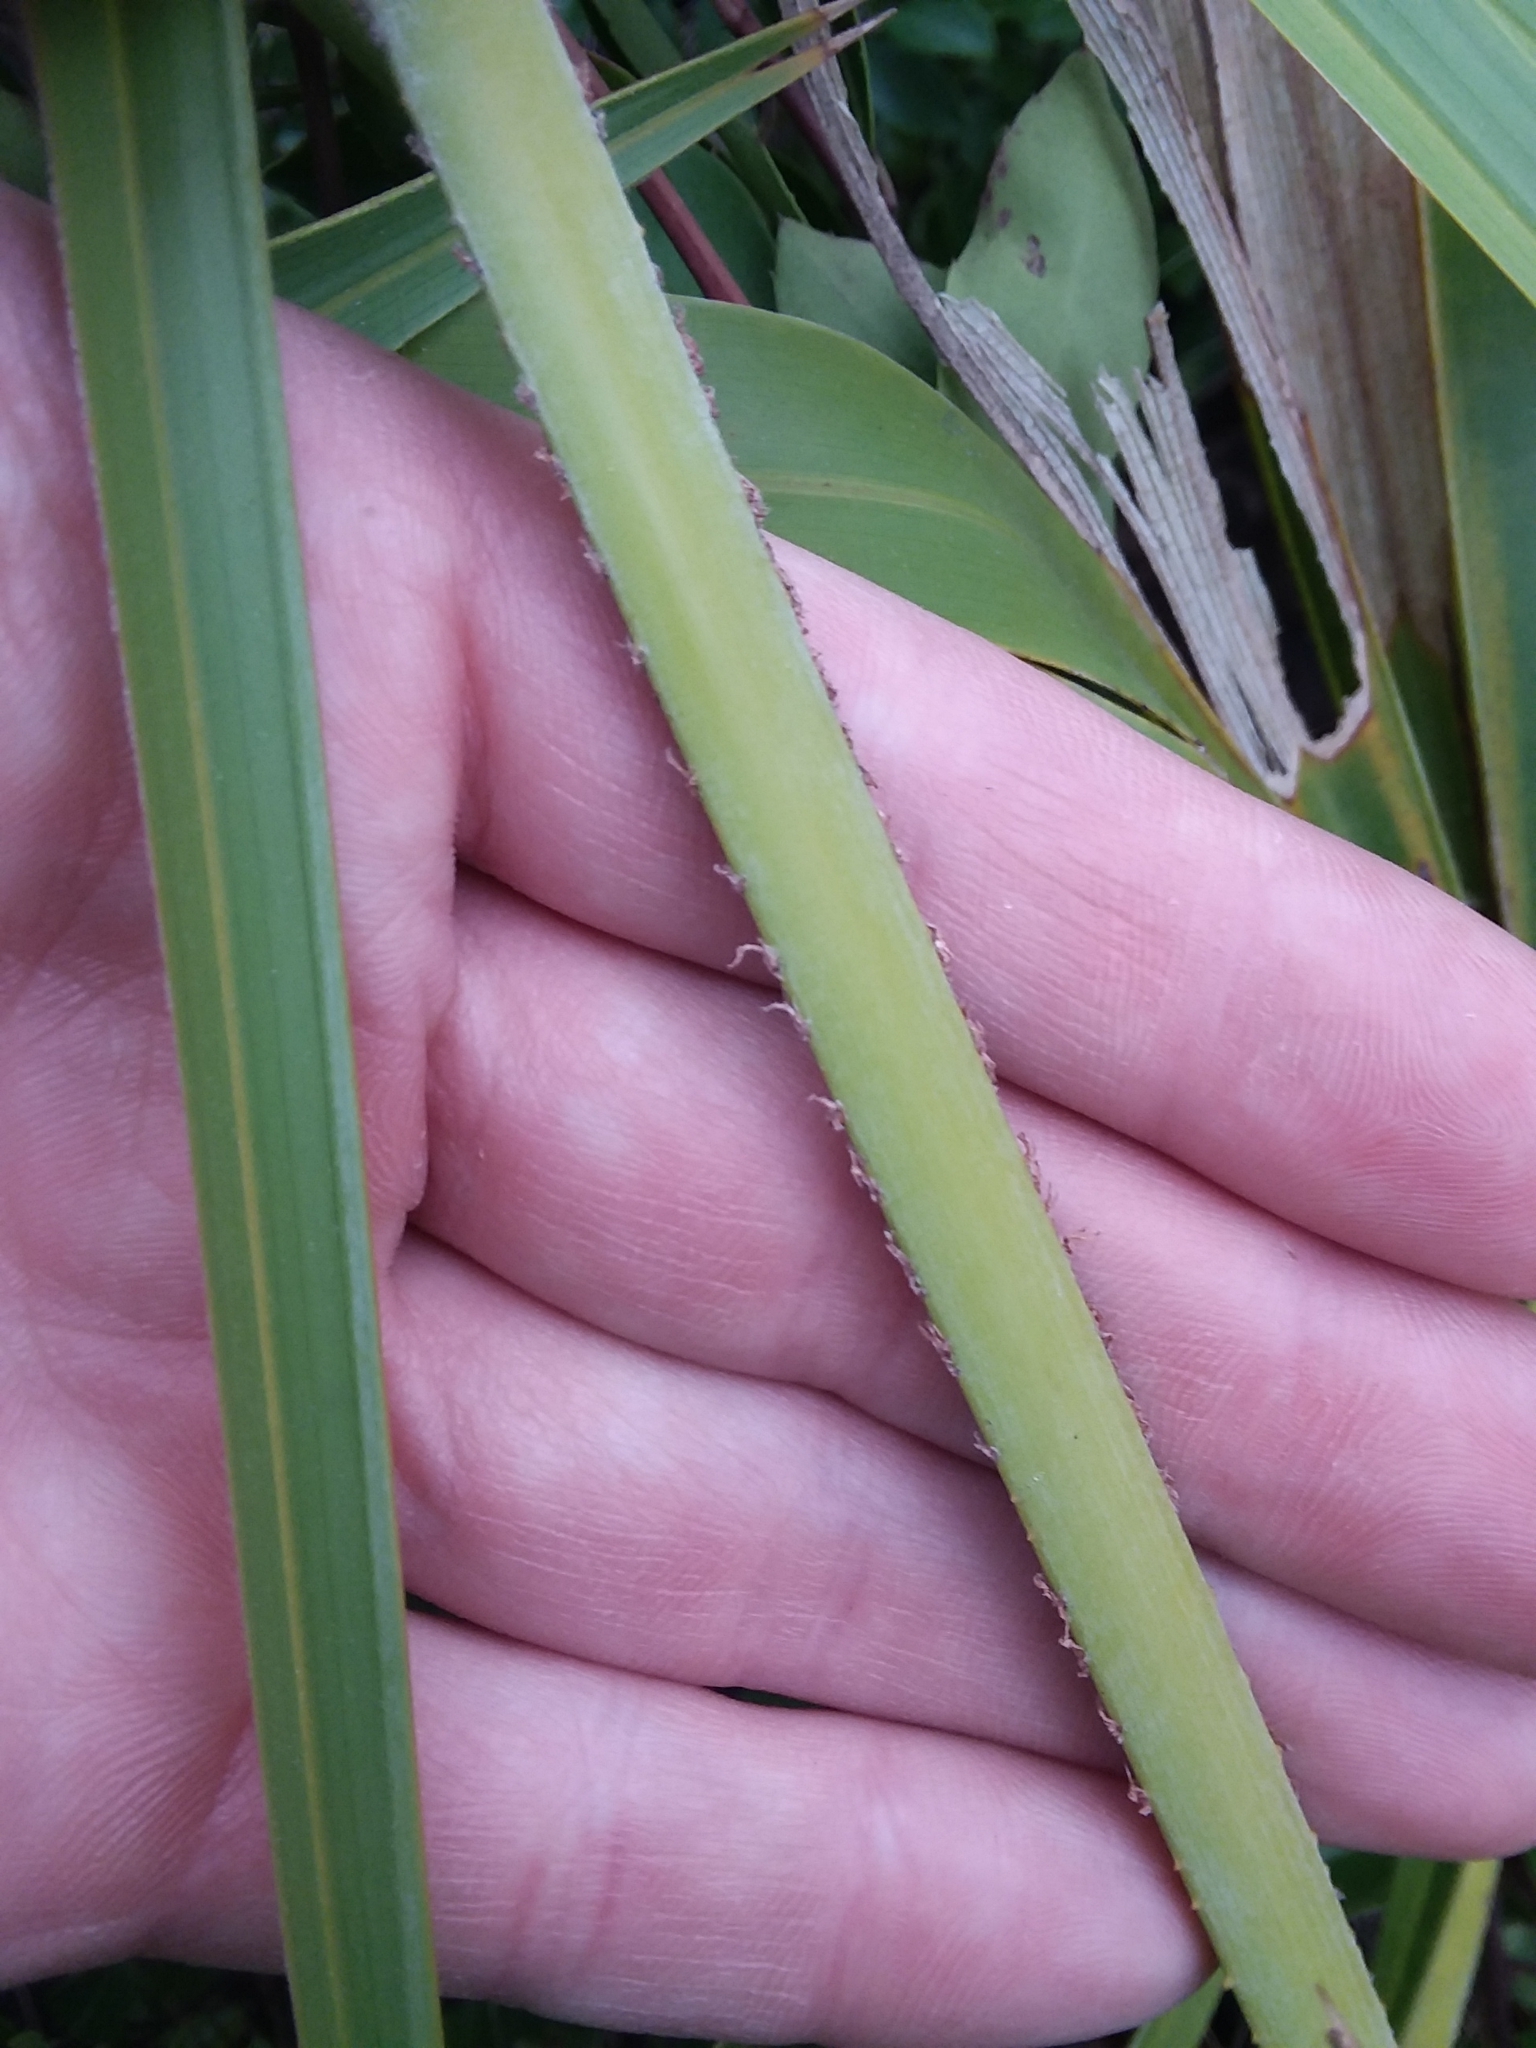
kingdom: Plantae
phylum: Tracheophyta
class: Liliopsida
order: Arecales
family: Arecaceae
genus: Serenoa
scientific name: Serenoa repens
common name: Saw-palmetto
